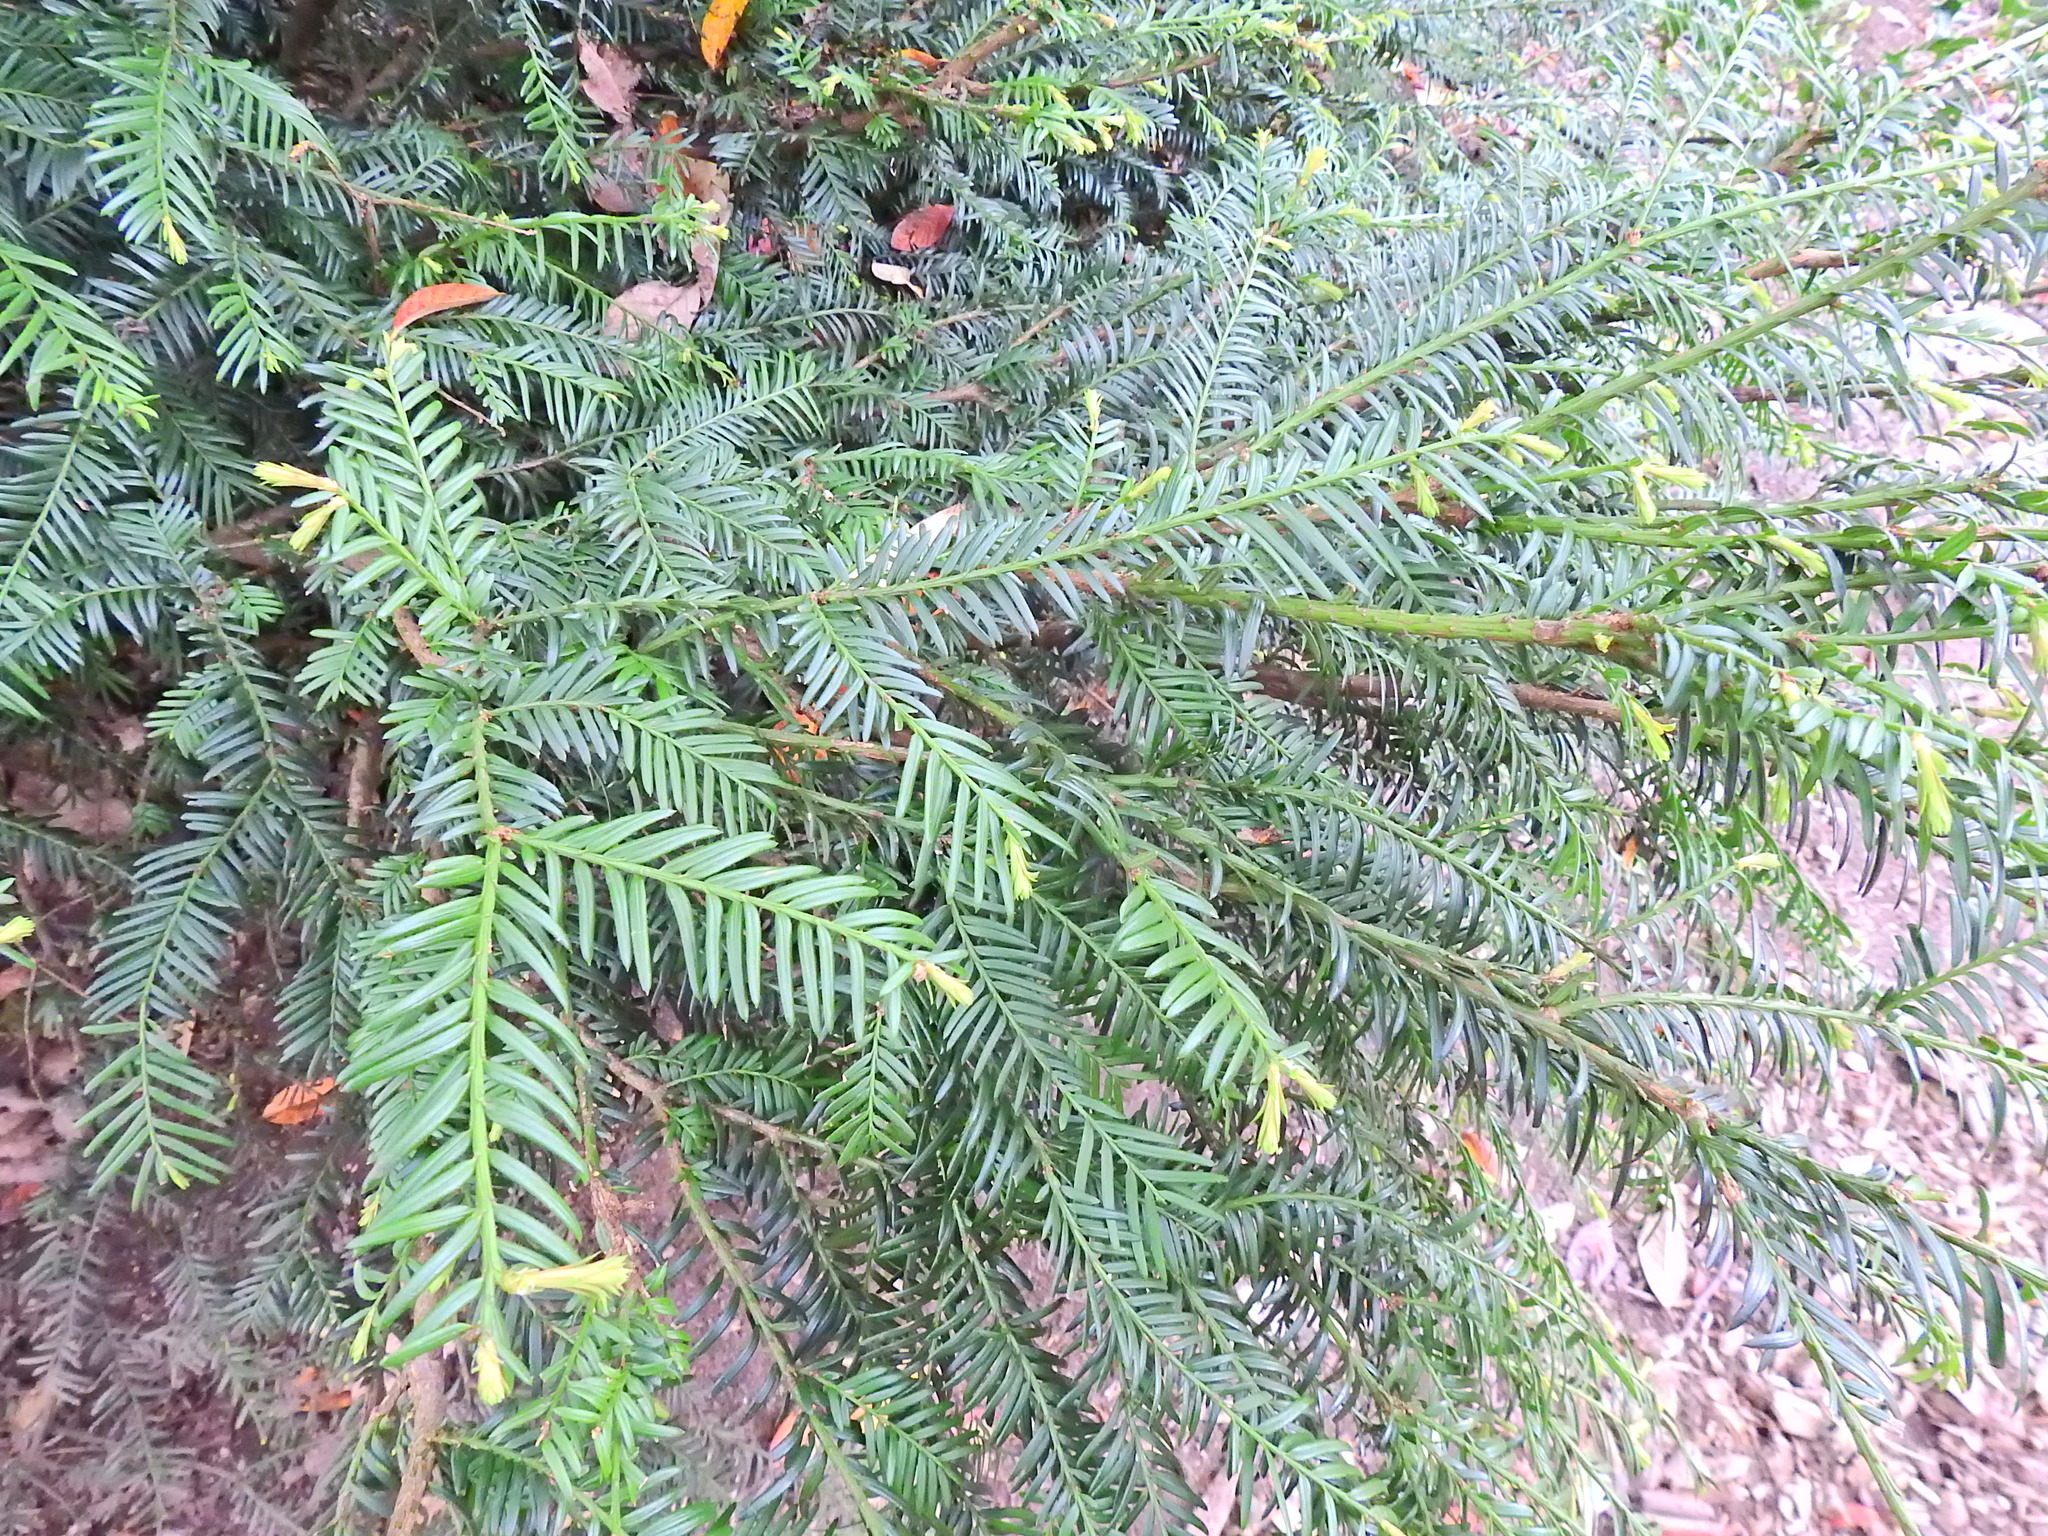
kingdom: Plantae
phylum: Tracheophyta
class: Pinopsida
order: Pinales
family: Taxaceae
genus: Taxus
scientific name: Taxus baccata
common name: Yew
